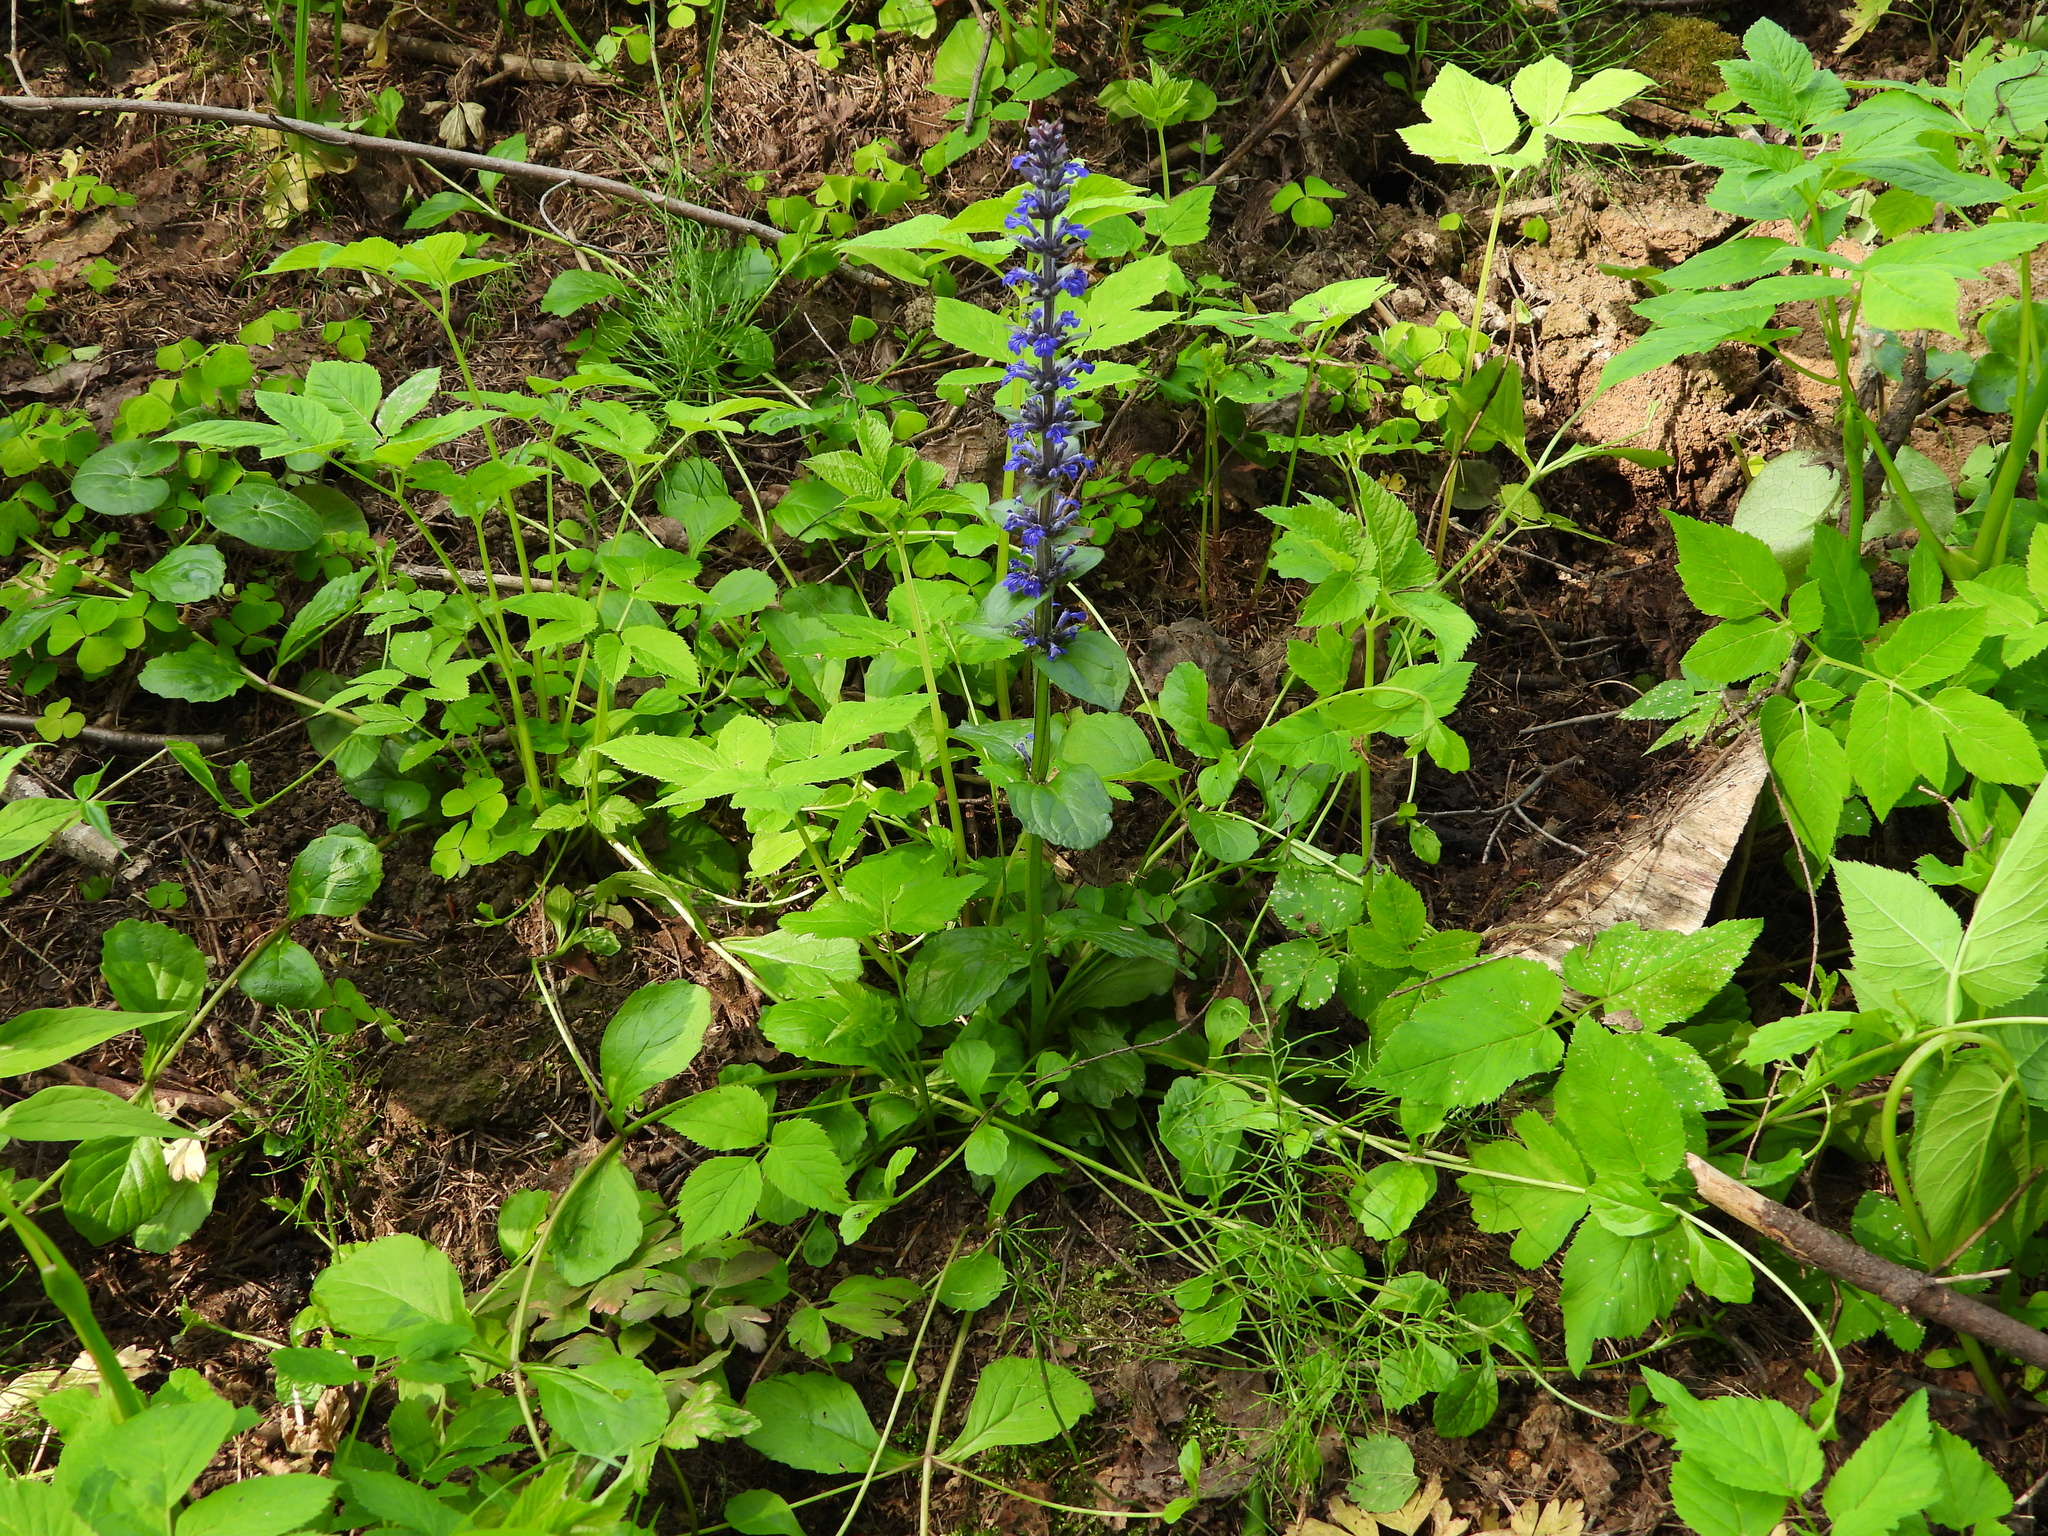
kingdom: Plantae
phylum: Tracheophyta
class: Magnoliopsida
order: Lamiales
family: Lamiaceae
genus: Ajuga
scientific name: Ajuga reptans
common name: Bugle
